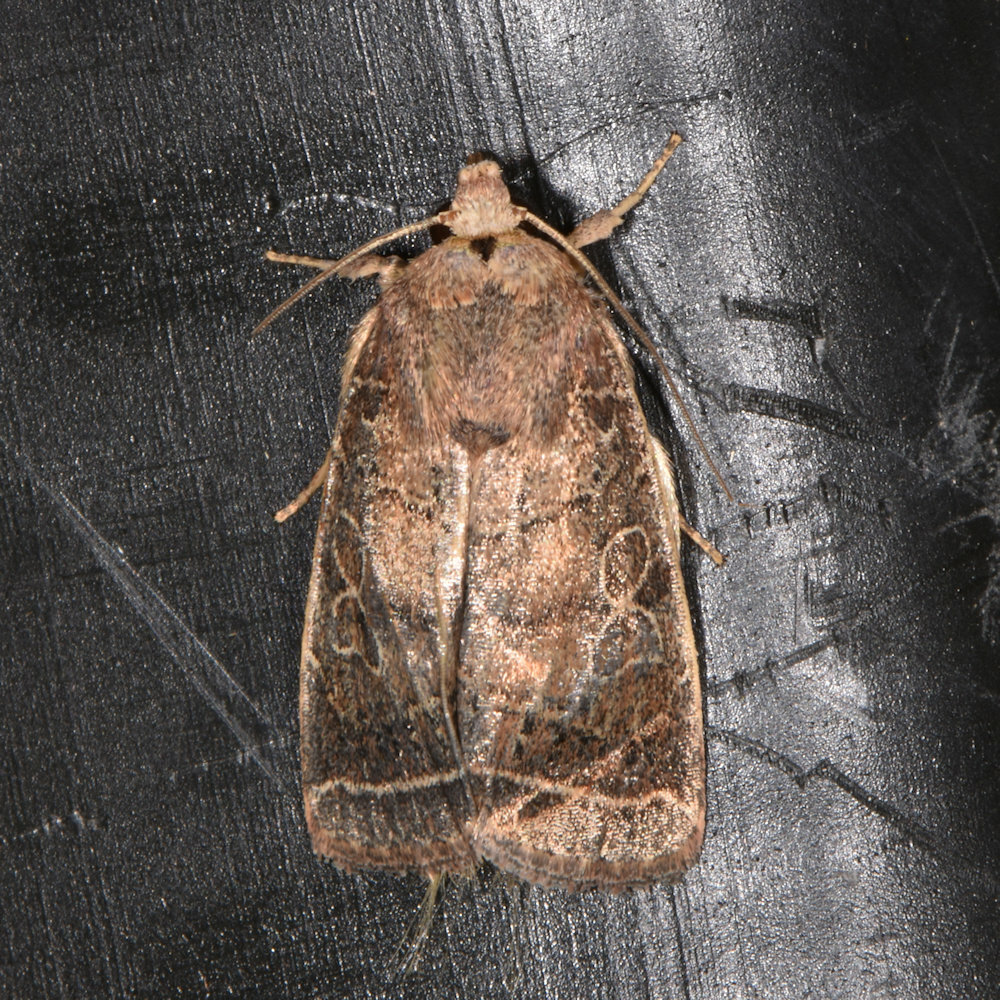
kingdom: Animalia
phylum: Arthropoda
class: Insecta
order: Lepidoptera
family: Noctuidae
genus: Orthodes
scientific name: Orthodes majuscula
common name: Rustic quaker
